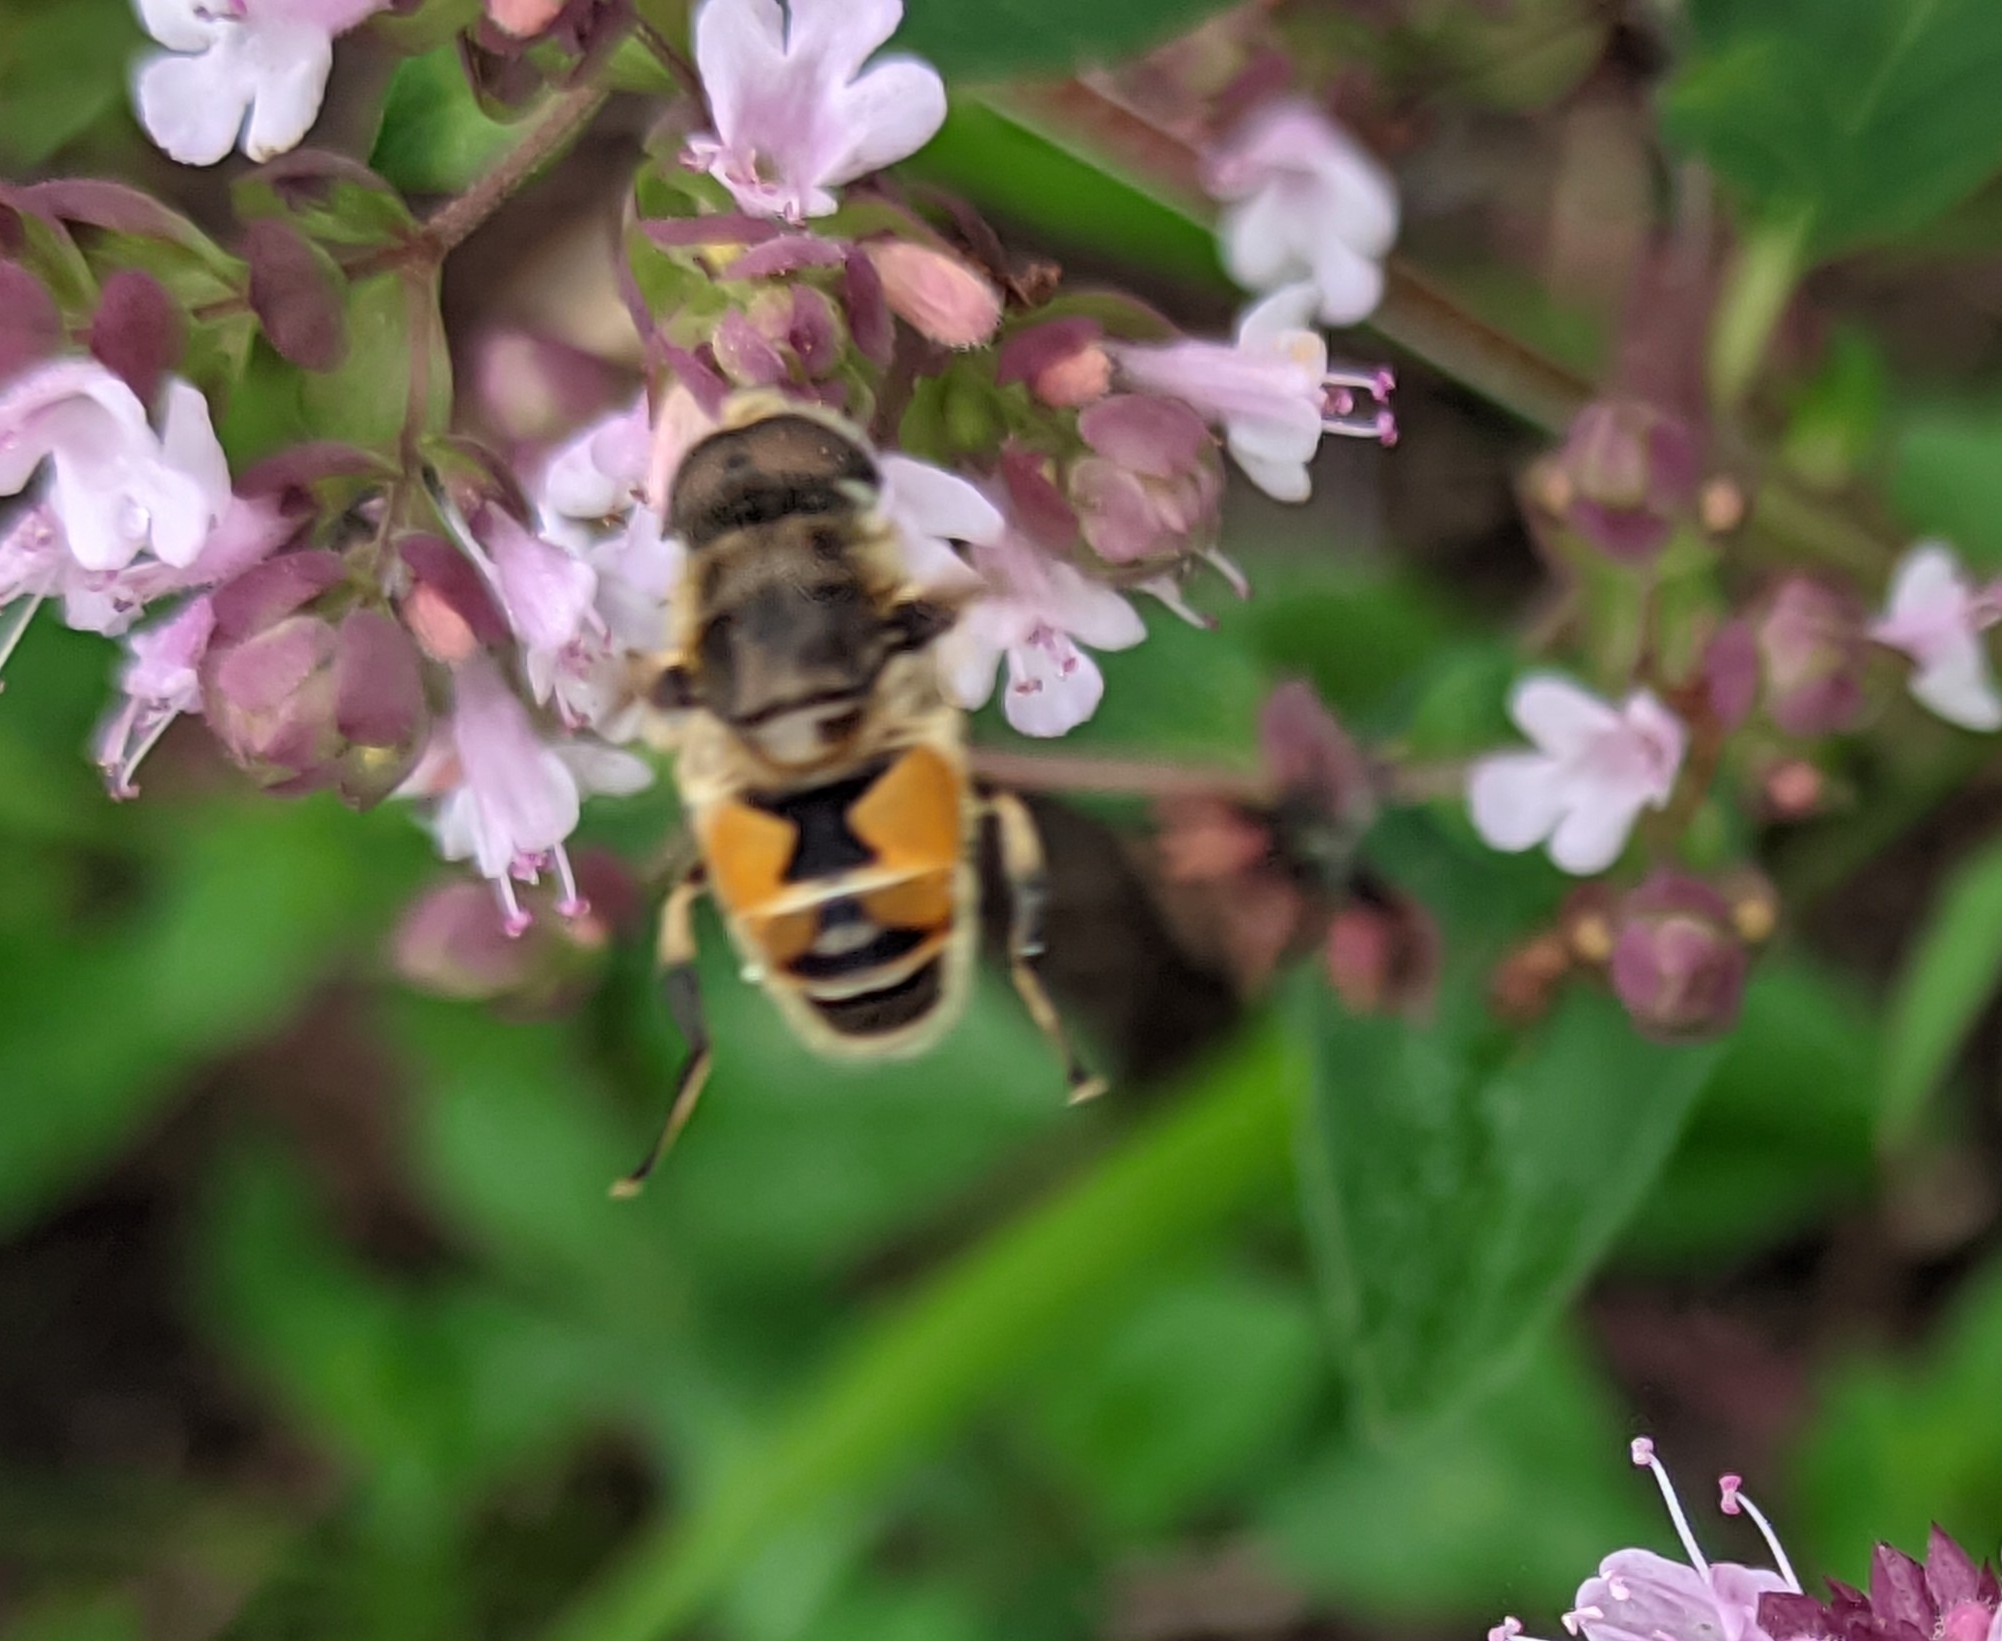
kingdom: Animalia
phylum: Arthropoda
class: Insecta
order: Diptera
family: Syrphidae
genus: Eristalis
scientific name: Eristalis arbustorum
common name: Hover fly
